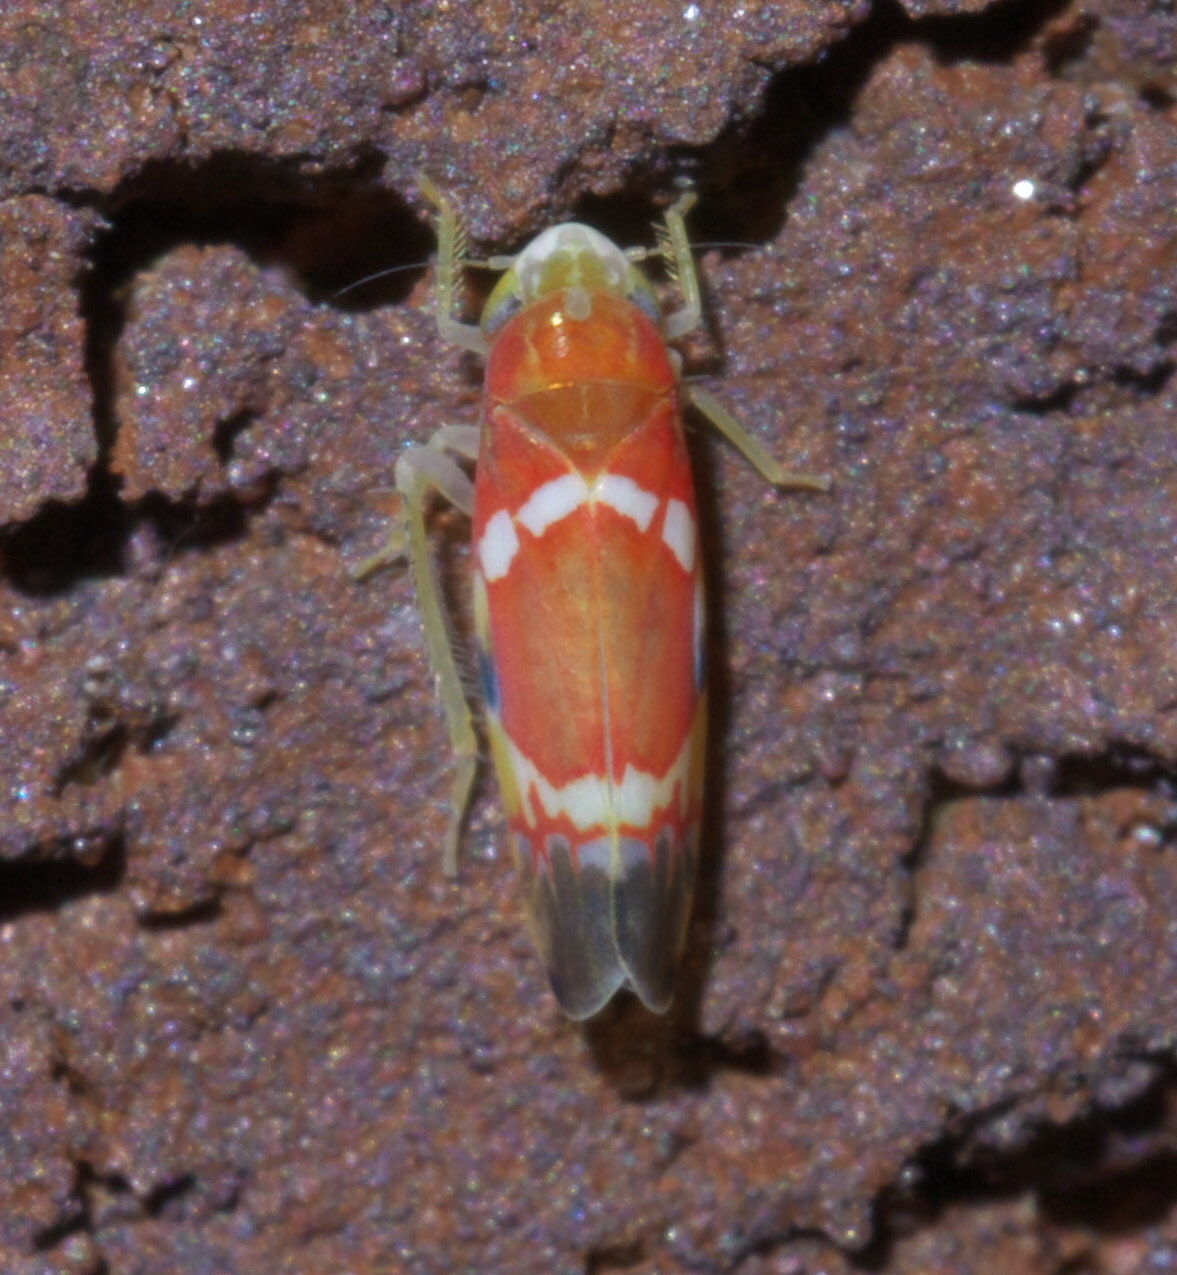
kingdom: Animalia
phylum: Arthropoda
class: Insecta
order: Hemiptera
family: Cicadellidae
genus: Erythroneura
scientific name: Erythroneura vitis
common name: Grapevine leafhopper
